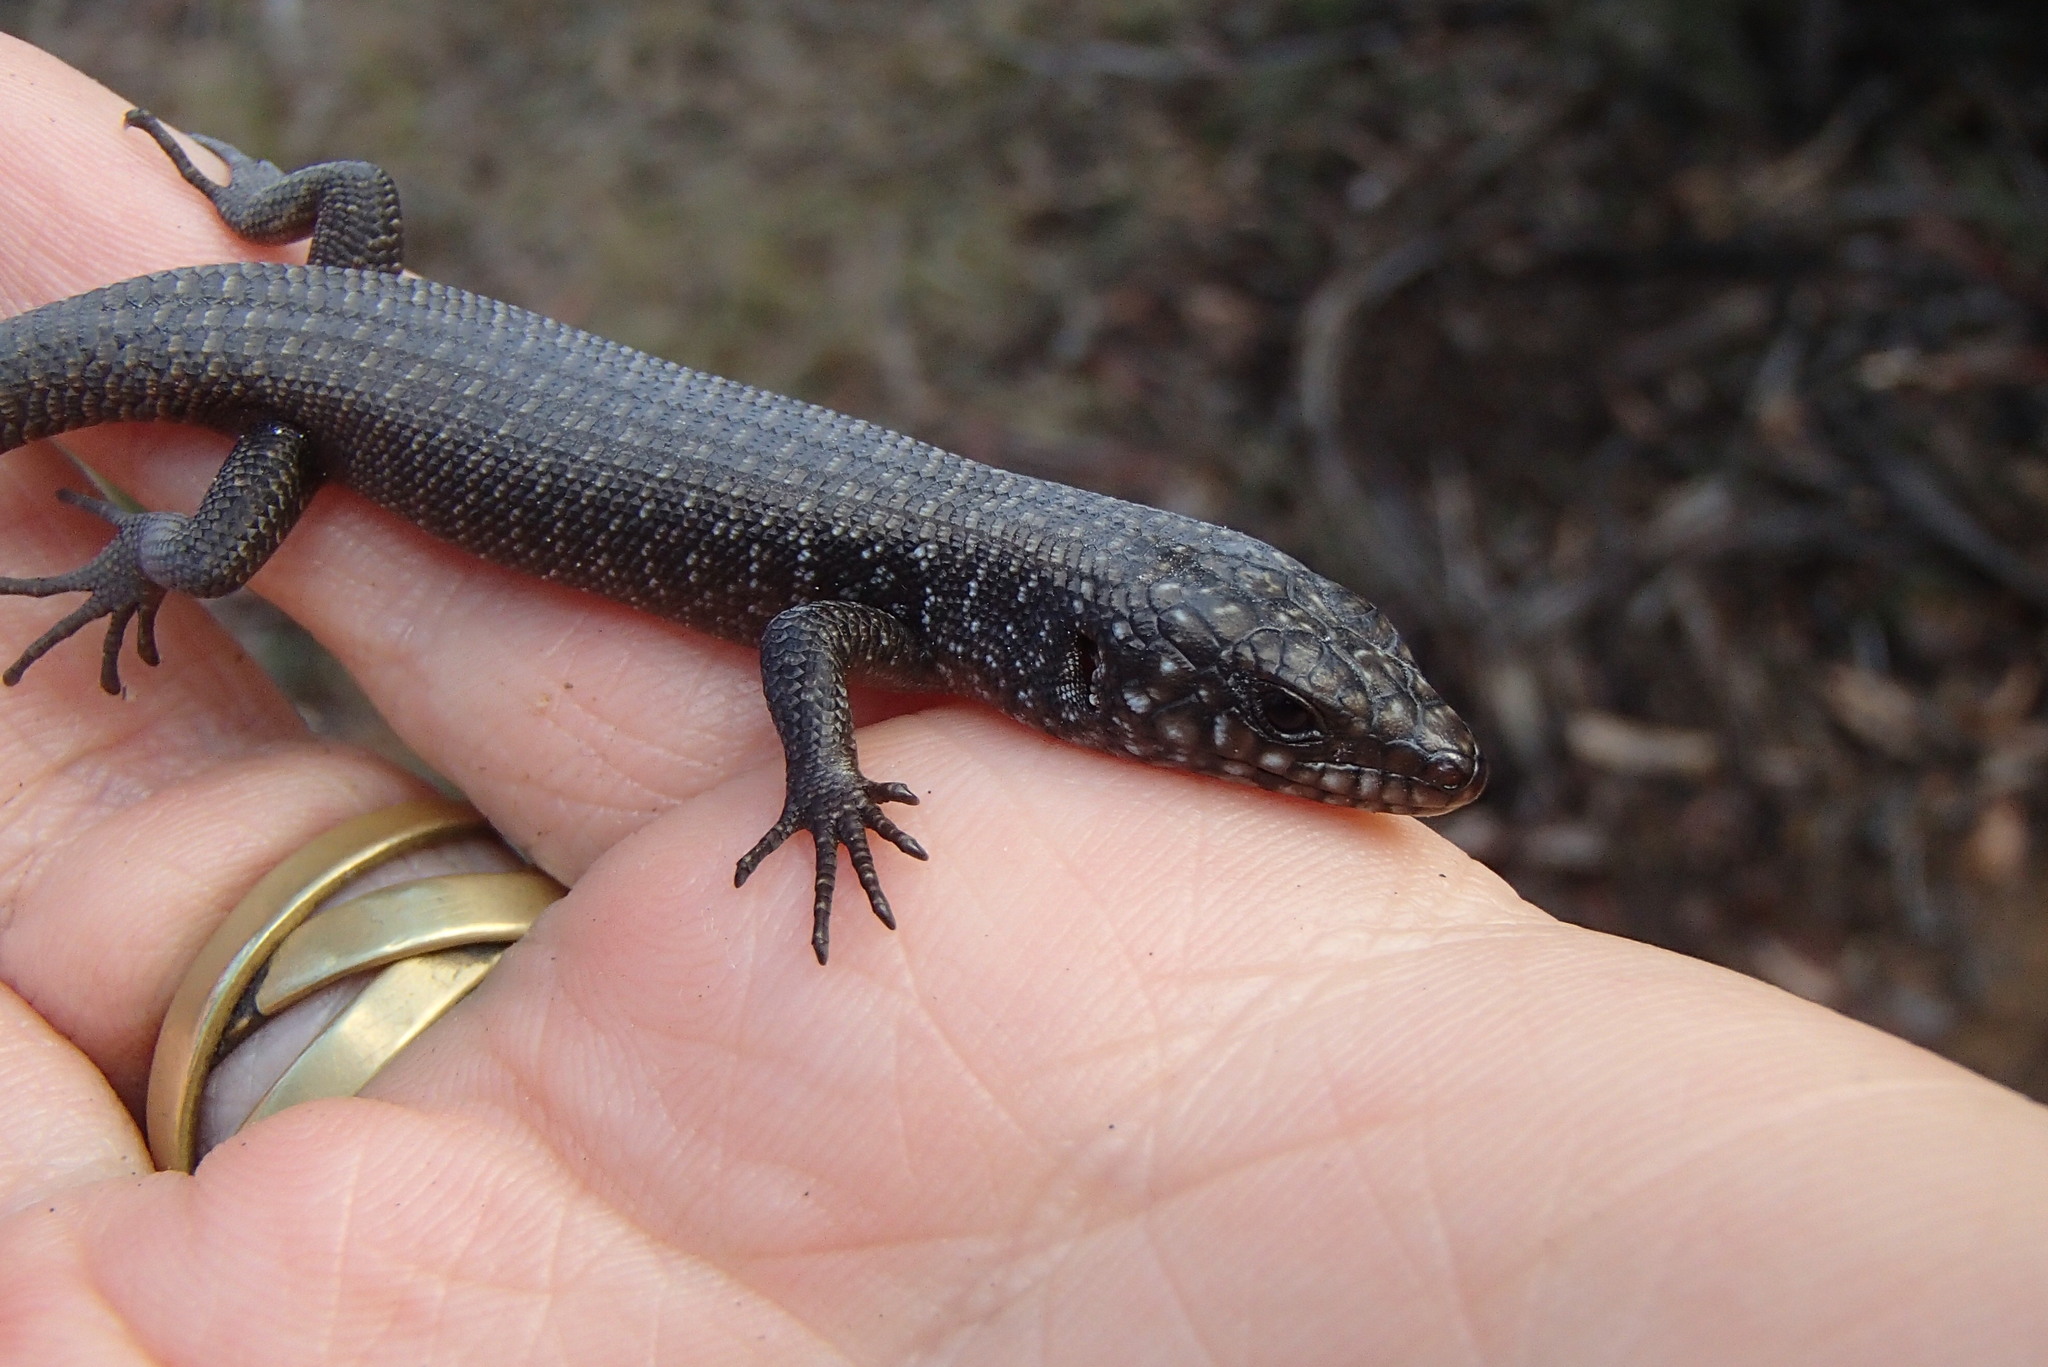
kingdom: Animalia
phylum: Chordata
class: Squamata
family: Scincidae
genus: Egernia
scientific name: Egernia saxatilis
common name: Black crevice-skink
